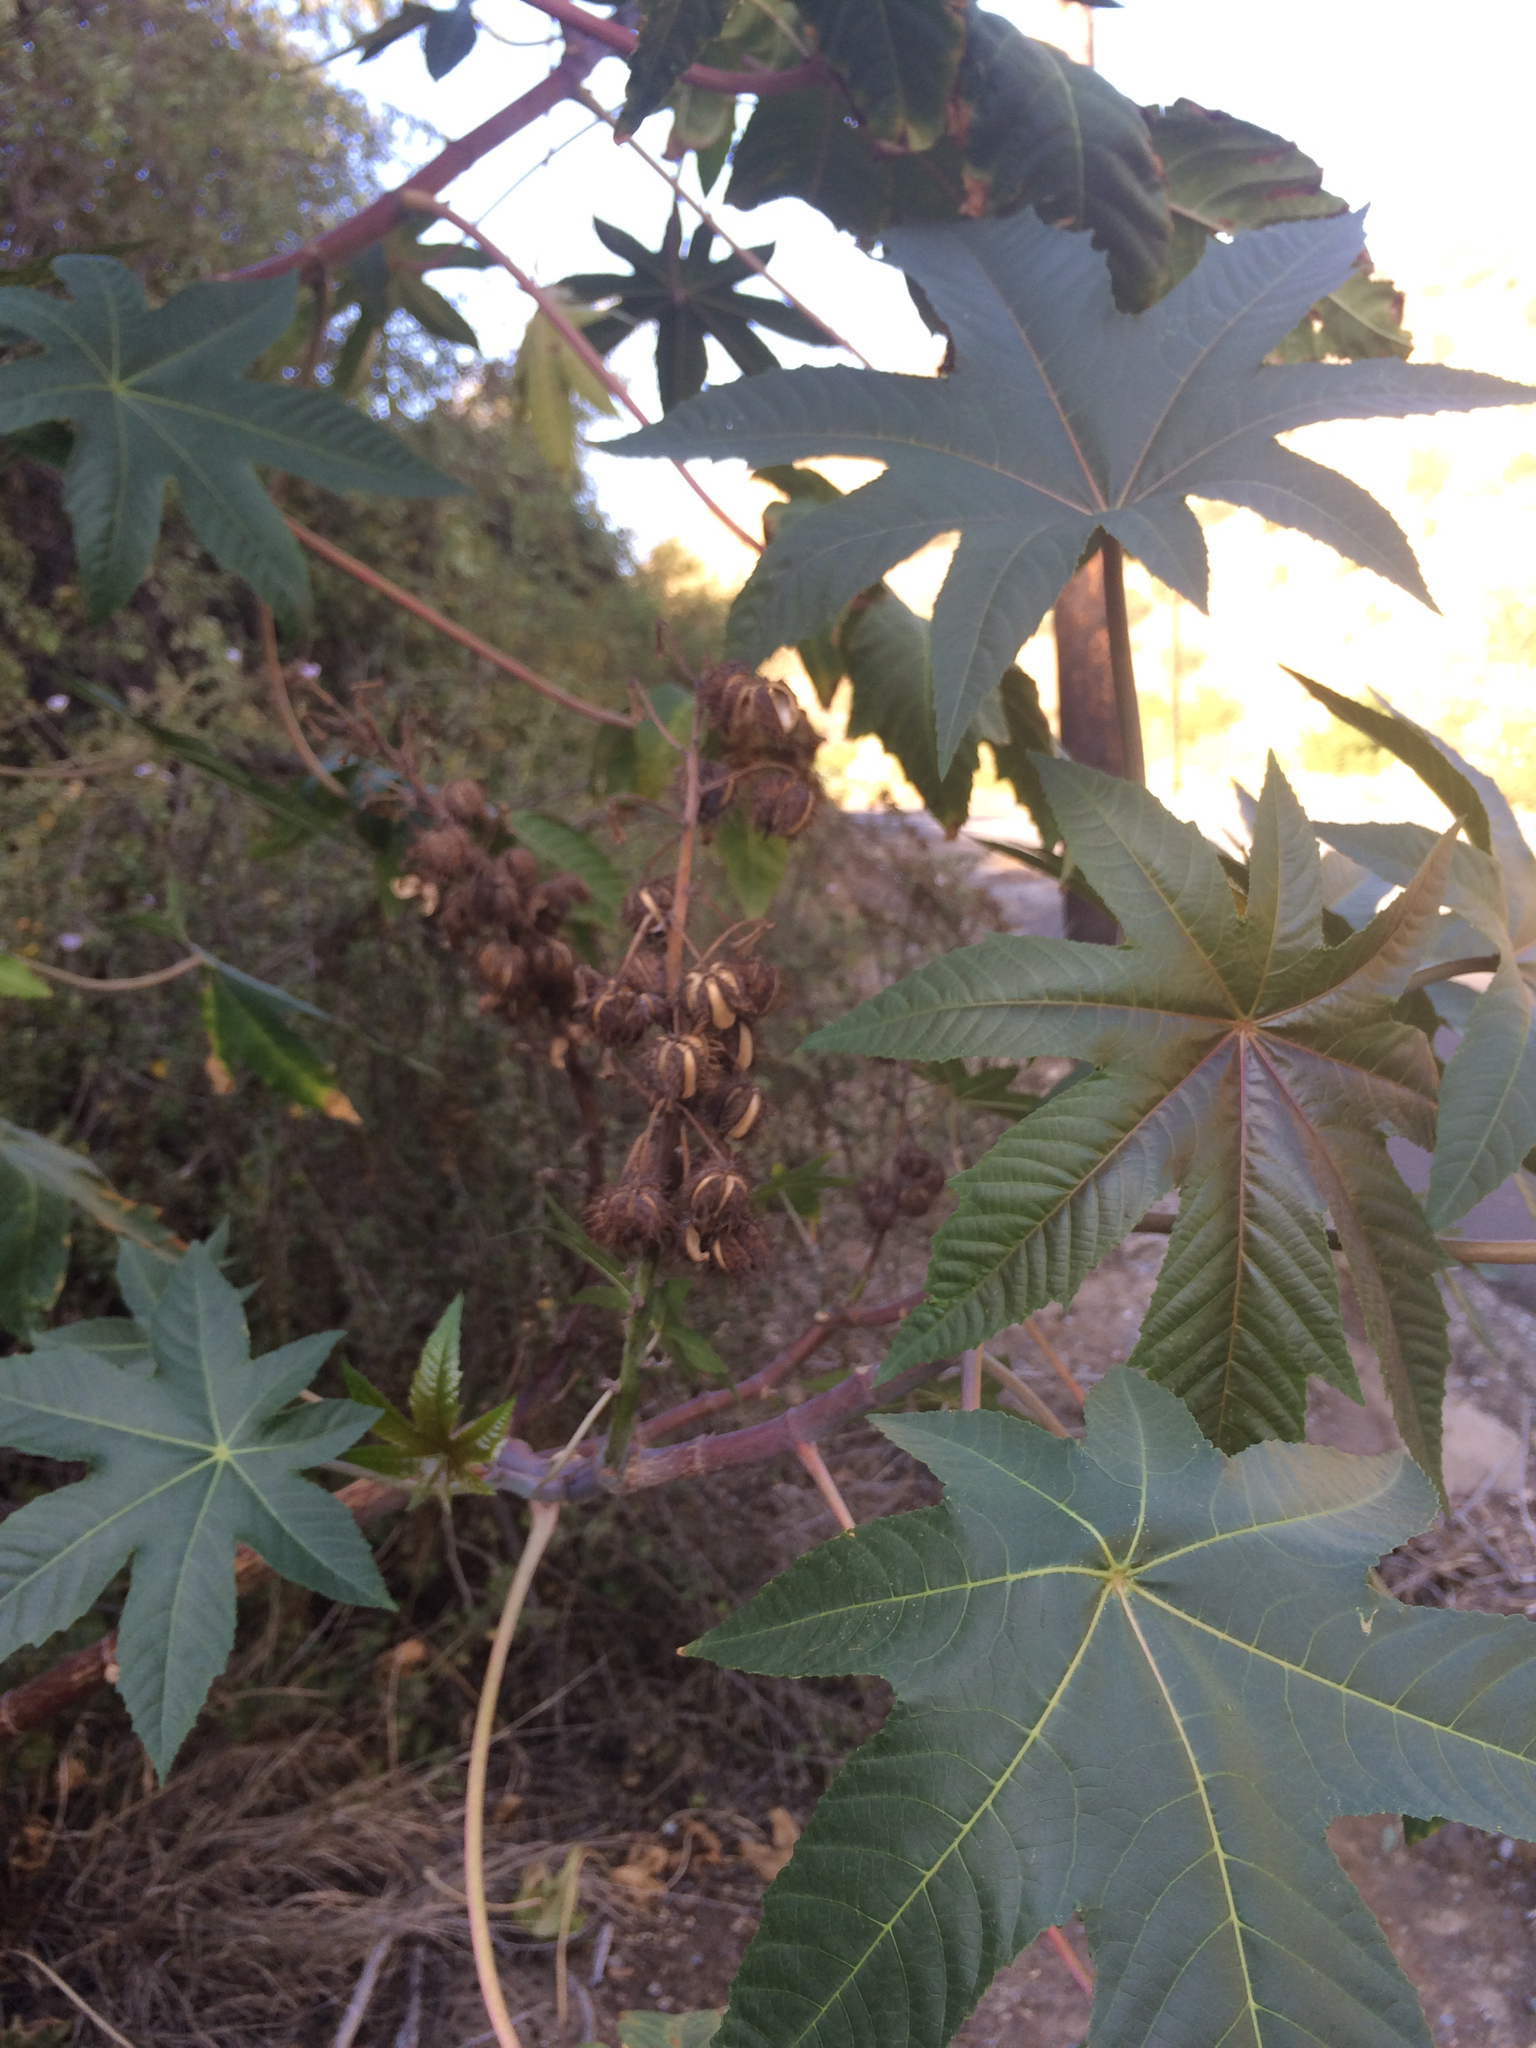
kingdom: Plantae
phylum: Tracheophyta
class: Magnoliopsida
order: Malpighiales
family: Euphorbiaceae
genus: Ricinus
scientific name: Ricinus communis
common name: Castor-oil-plant
